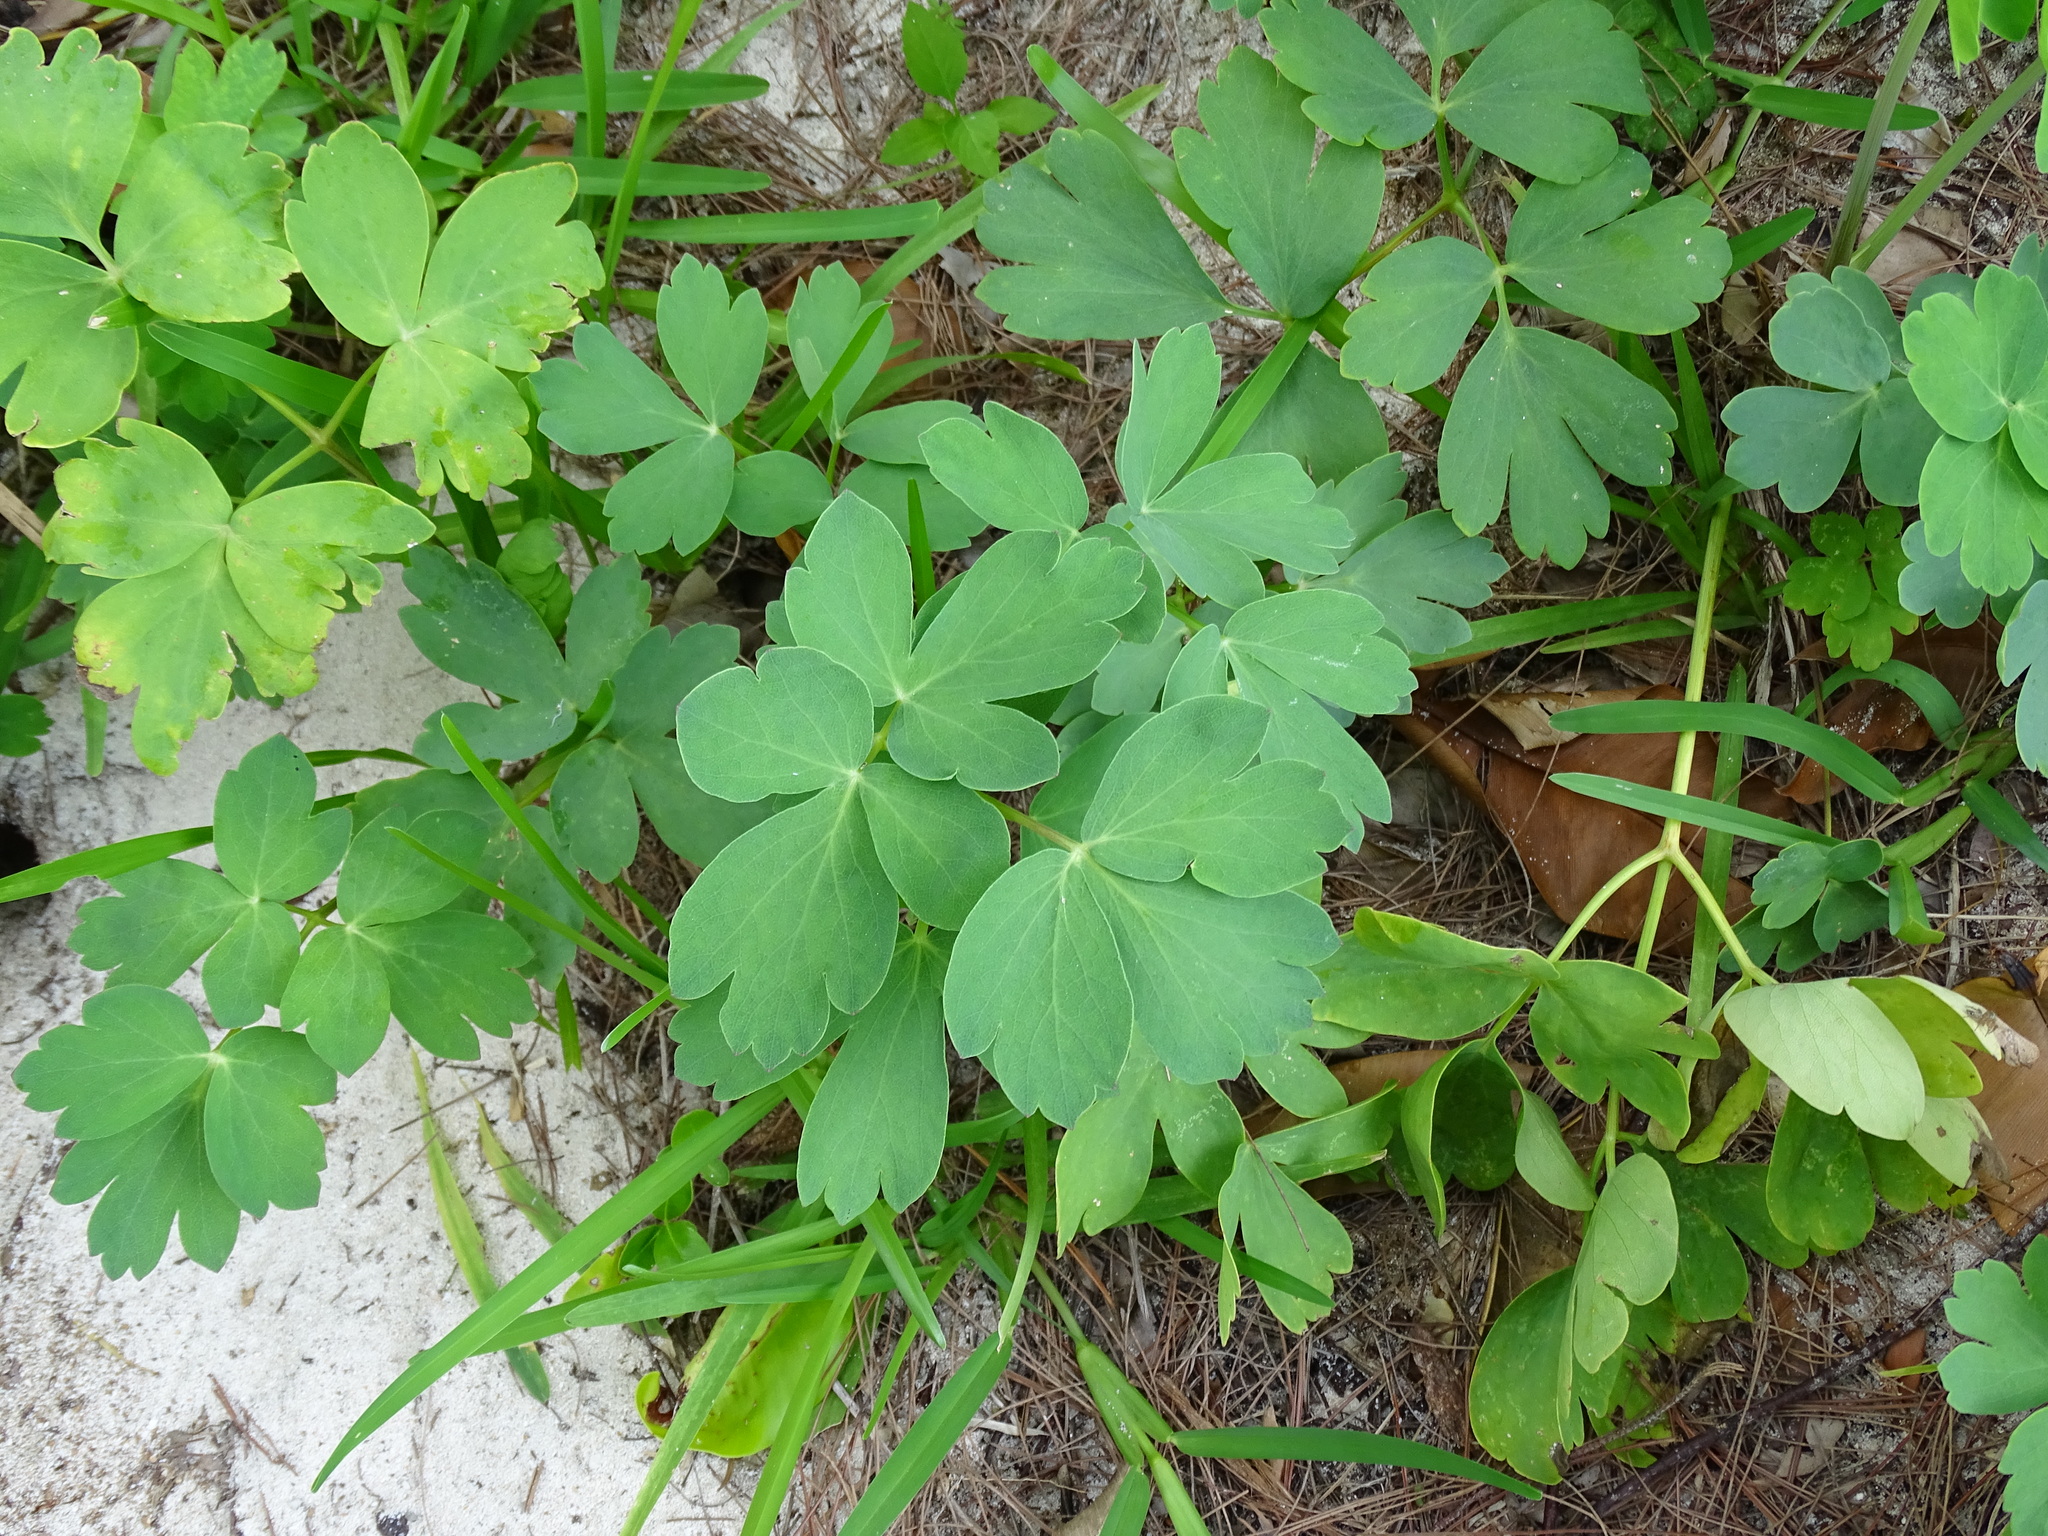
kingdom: Plantae
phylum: Tracheophyta
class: Magnoliopsida
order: Apiales
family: Apiaceae
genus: Peucedanum
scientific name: Peucedanum japonicum
